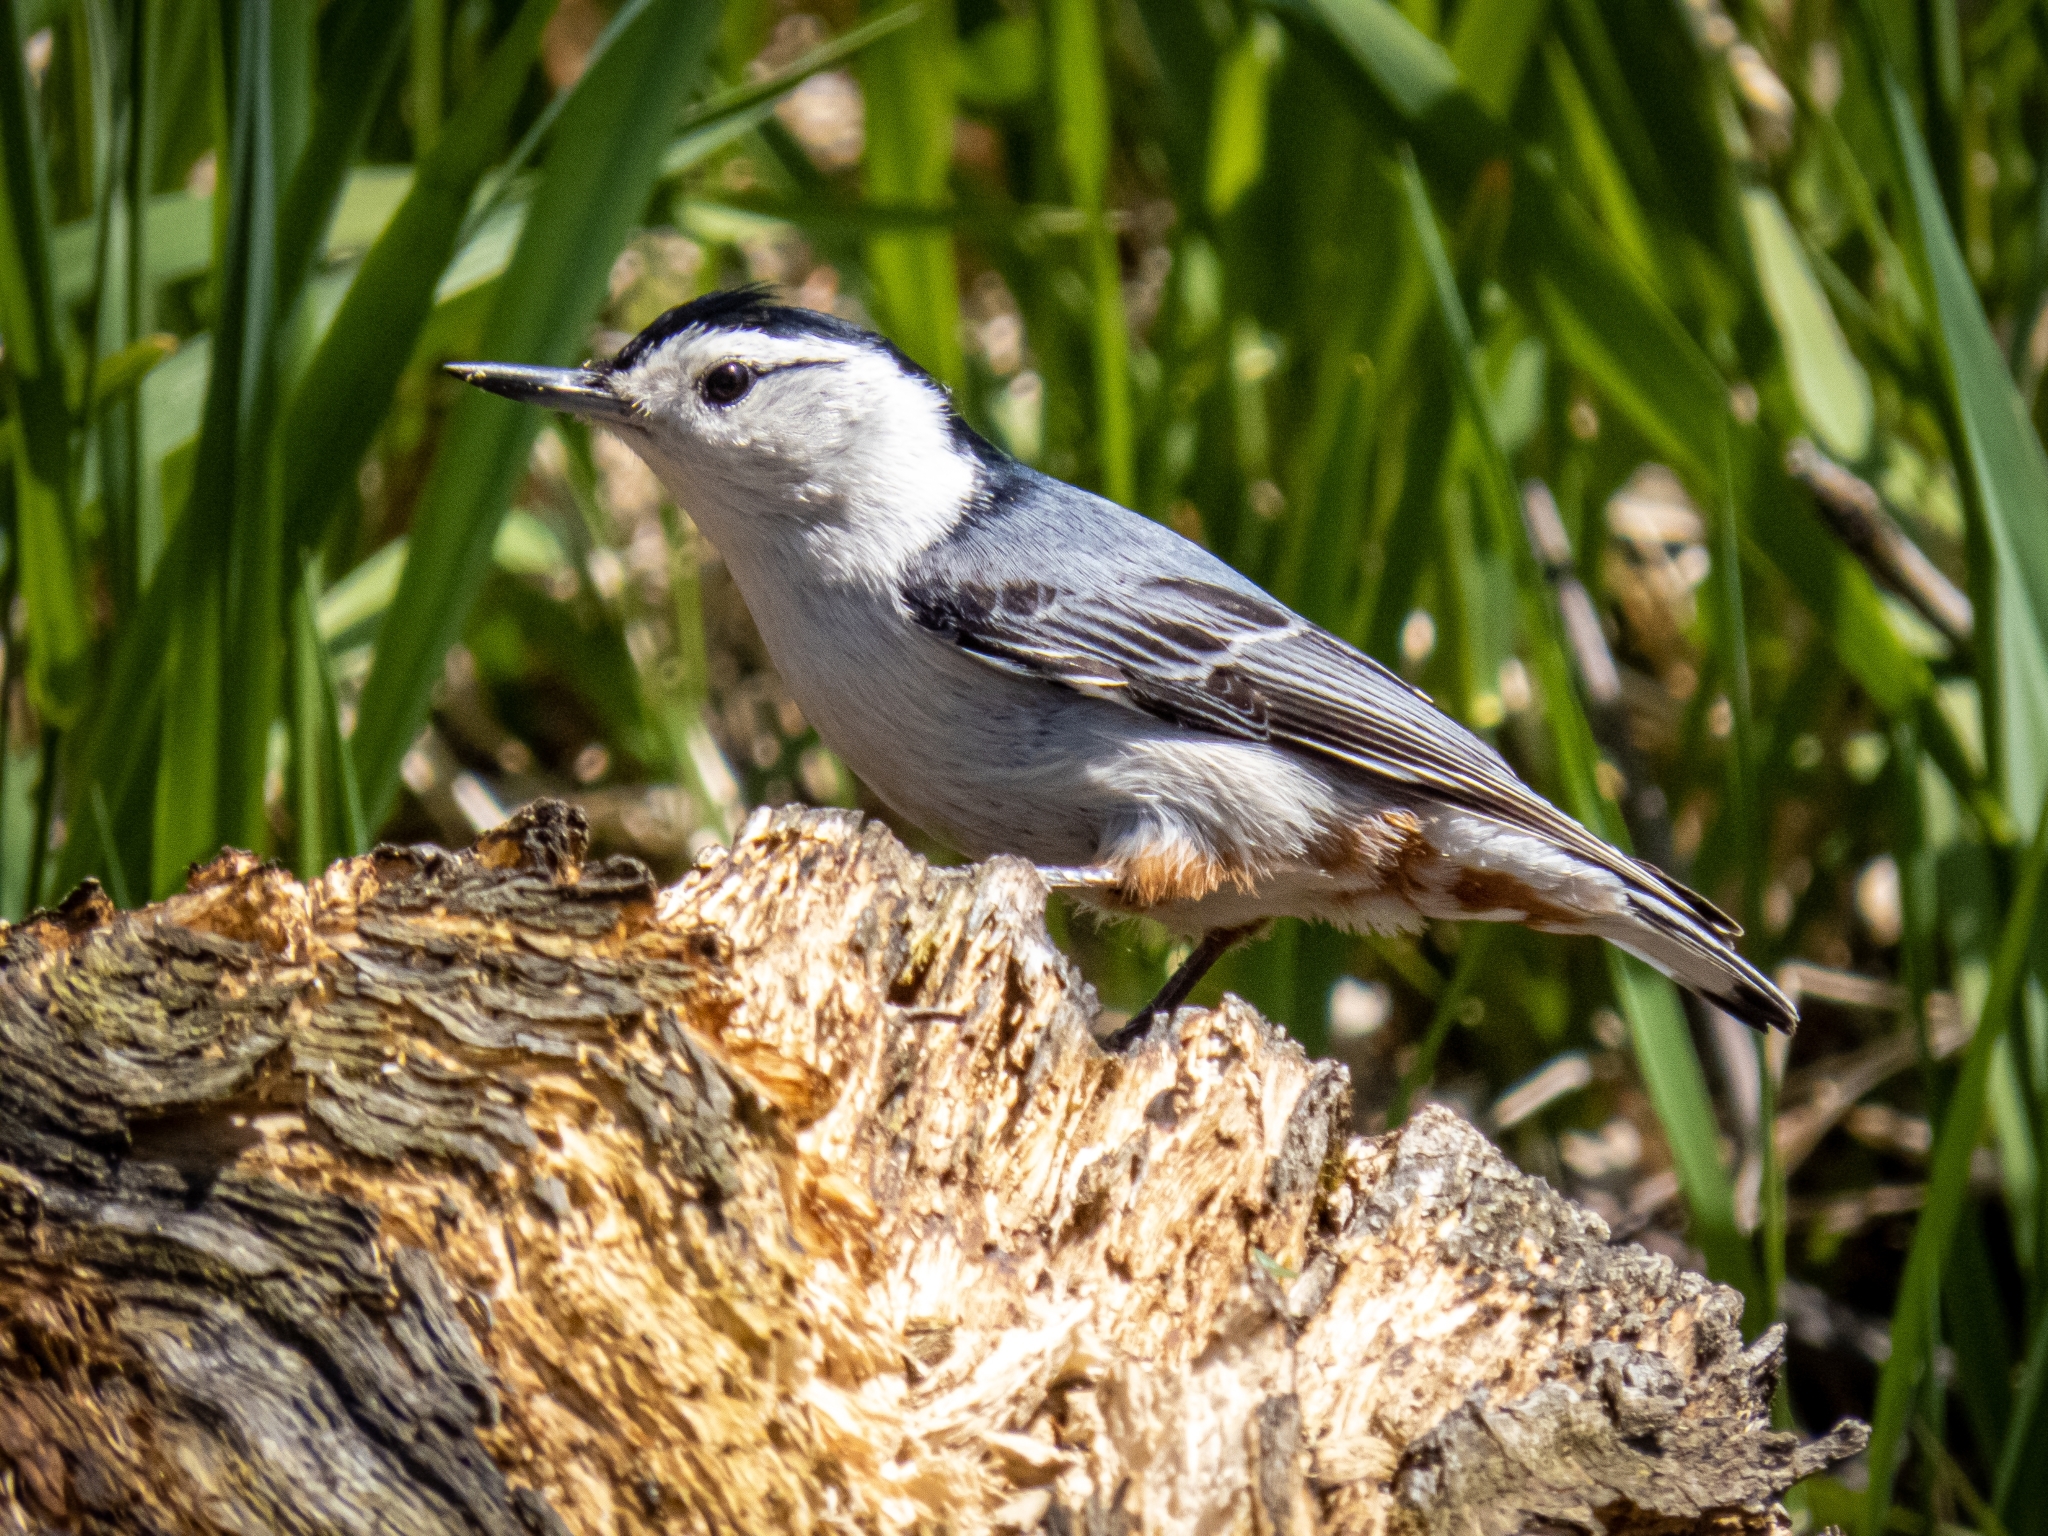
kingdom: Animalia
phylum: Chordata
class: Aves
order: Passeriformes
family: Sittidae
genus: Sitta
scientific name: Sitta carolinensis
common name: White-breasted nuthatch
